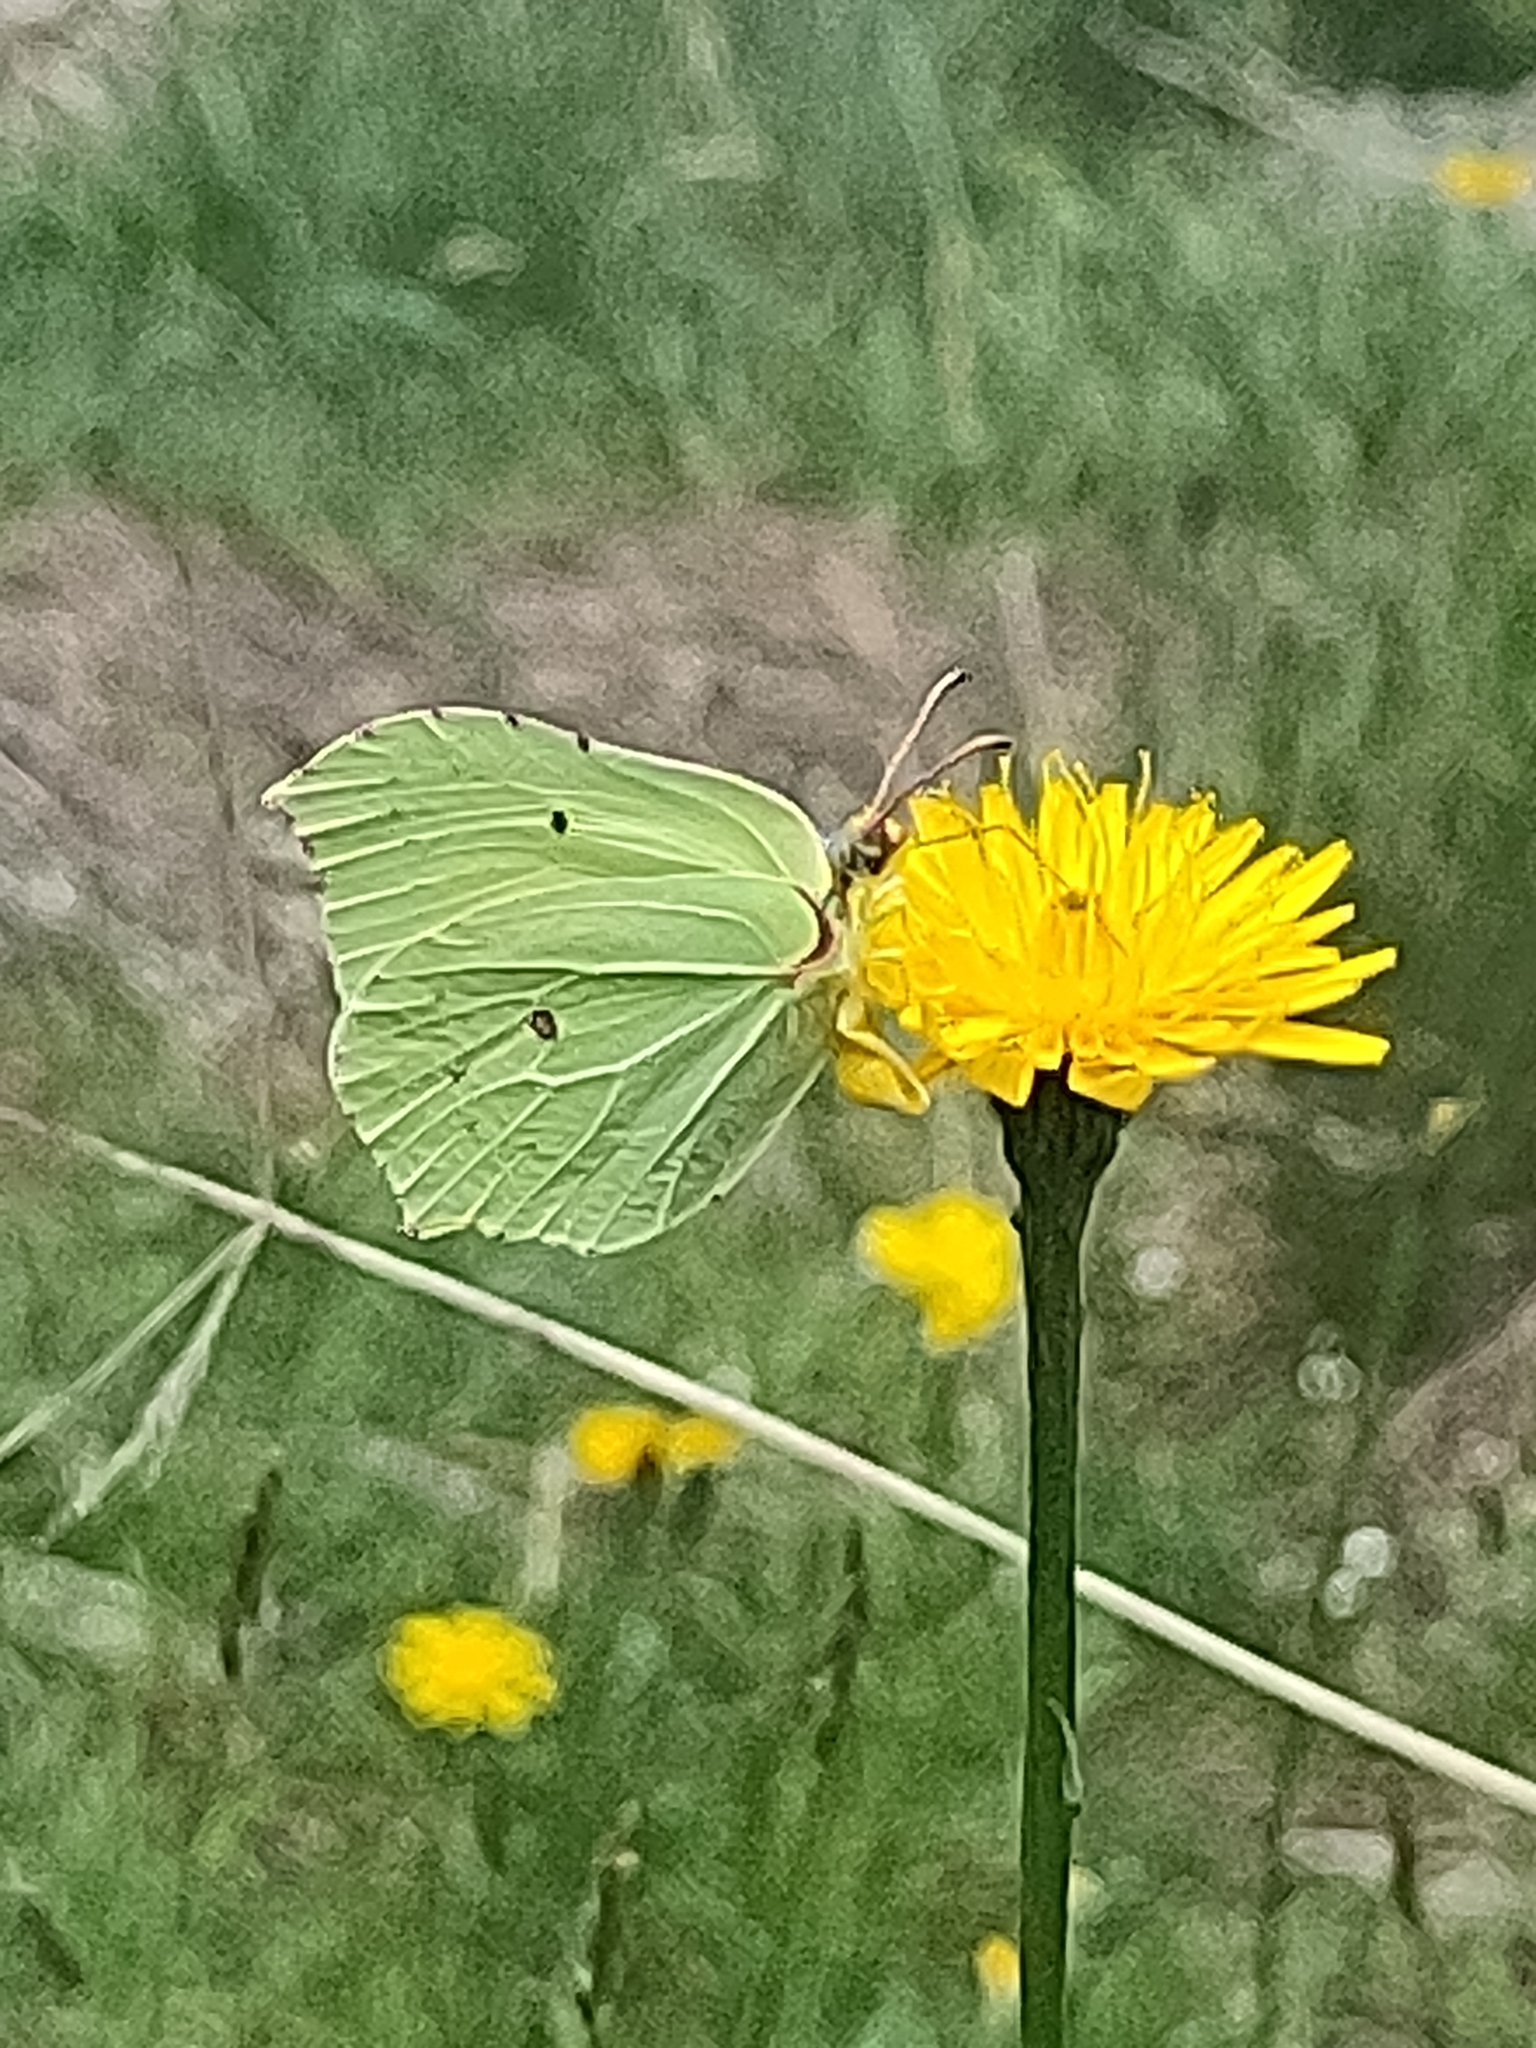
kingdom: Animalia
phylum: Arthropoda
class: Insecta
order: Lepidoptera
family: Pieridae
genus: Gonepteryx
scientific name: Gonepteryx rhamni
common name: Brimstone
